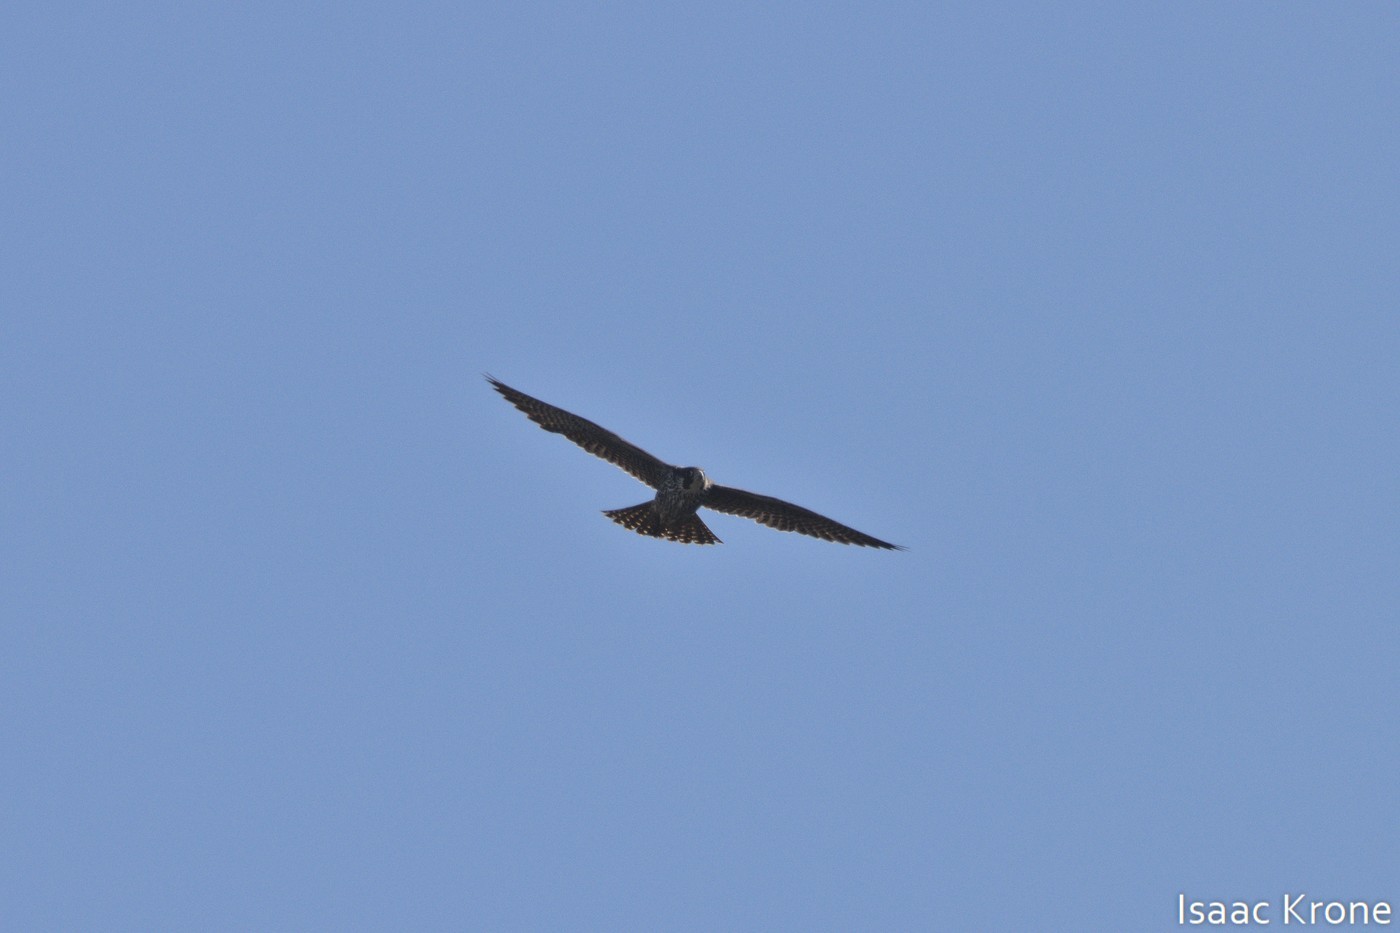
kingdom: Animalia
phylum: Chordata
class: Aves
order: Falconiformes
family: Falconidae
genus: Falco
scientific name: Falco peregrinus
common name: Peregrine falcon
